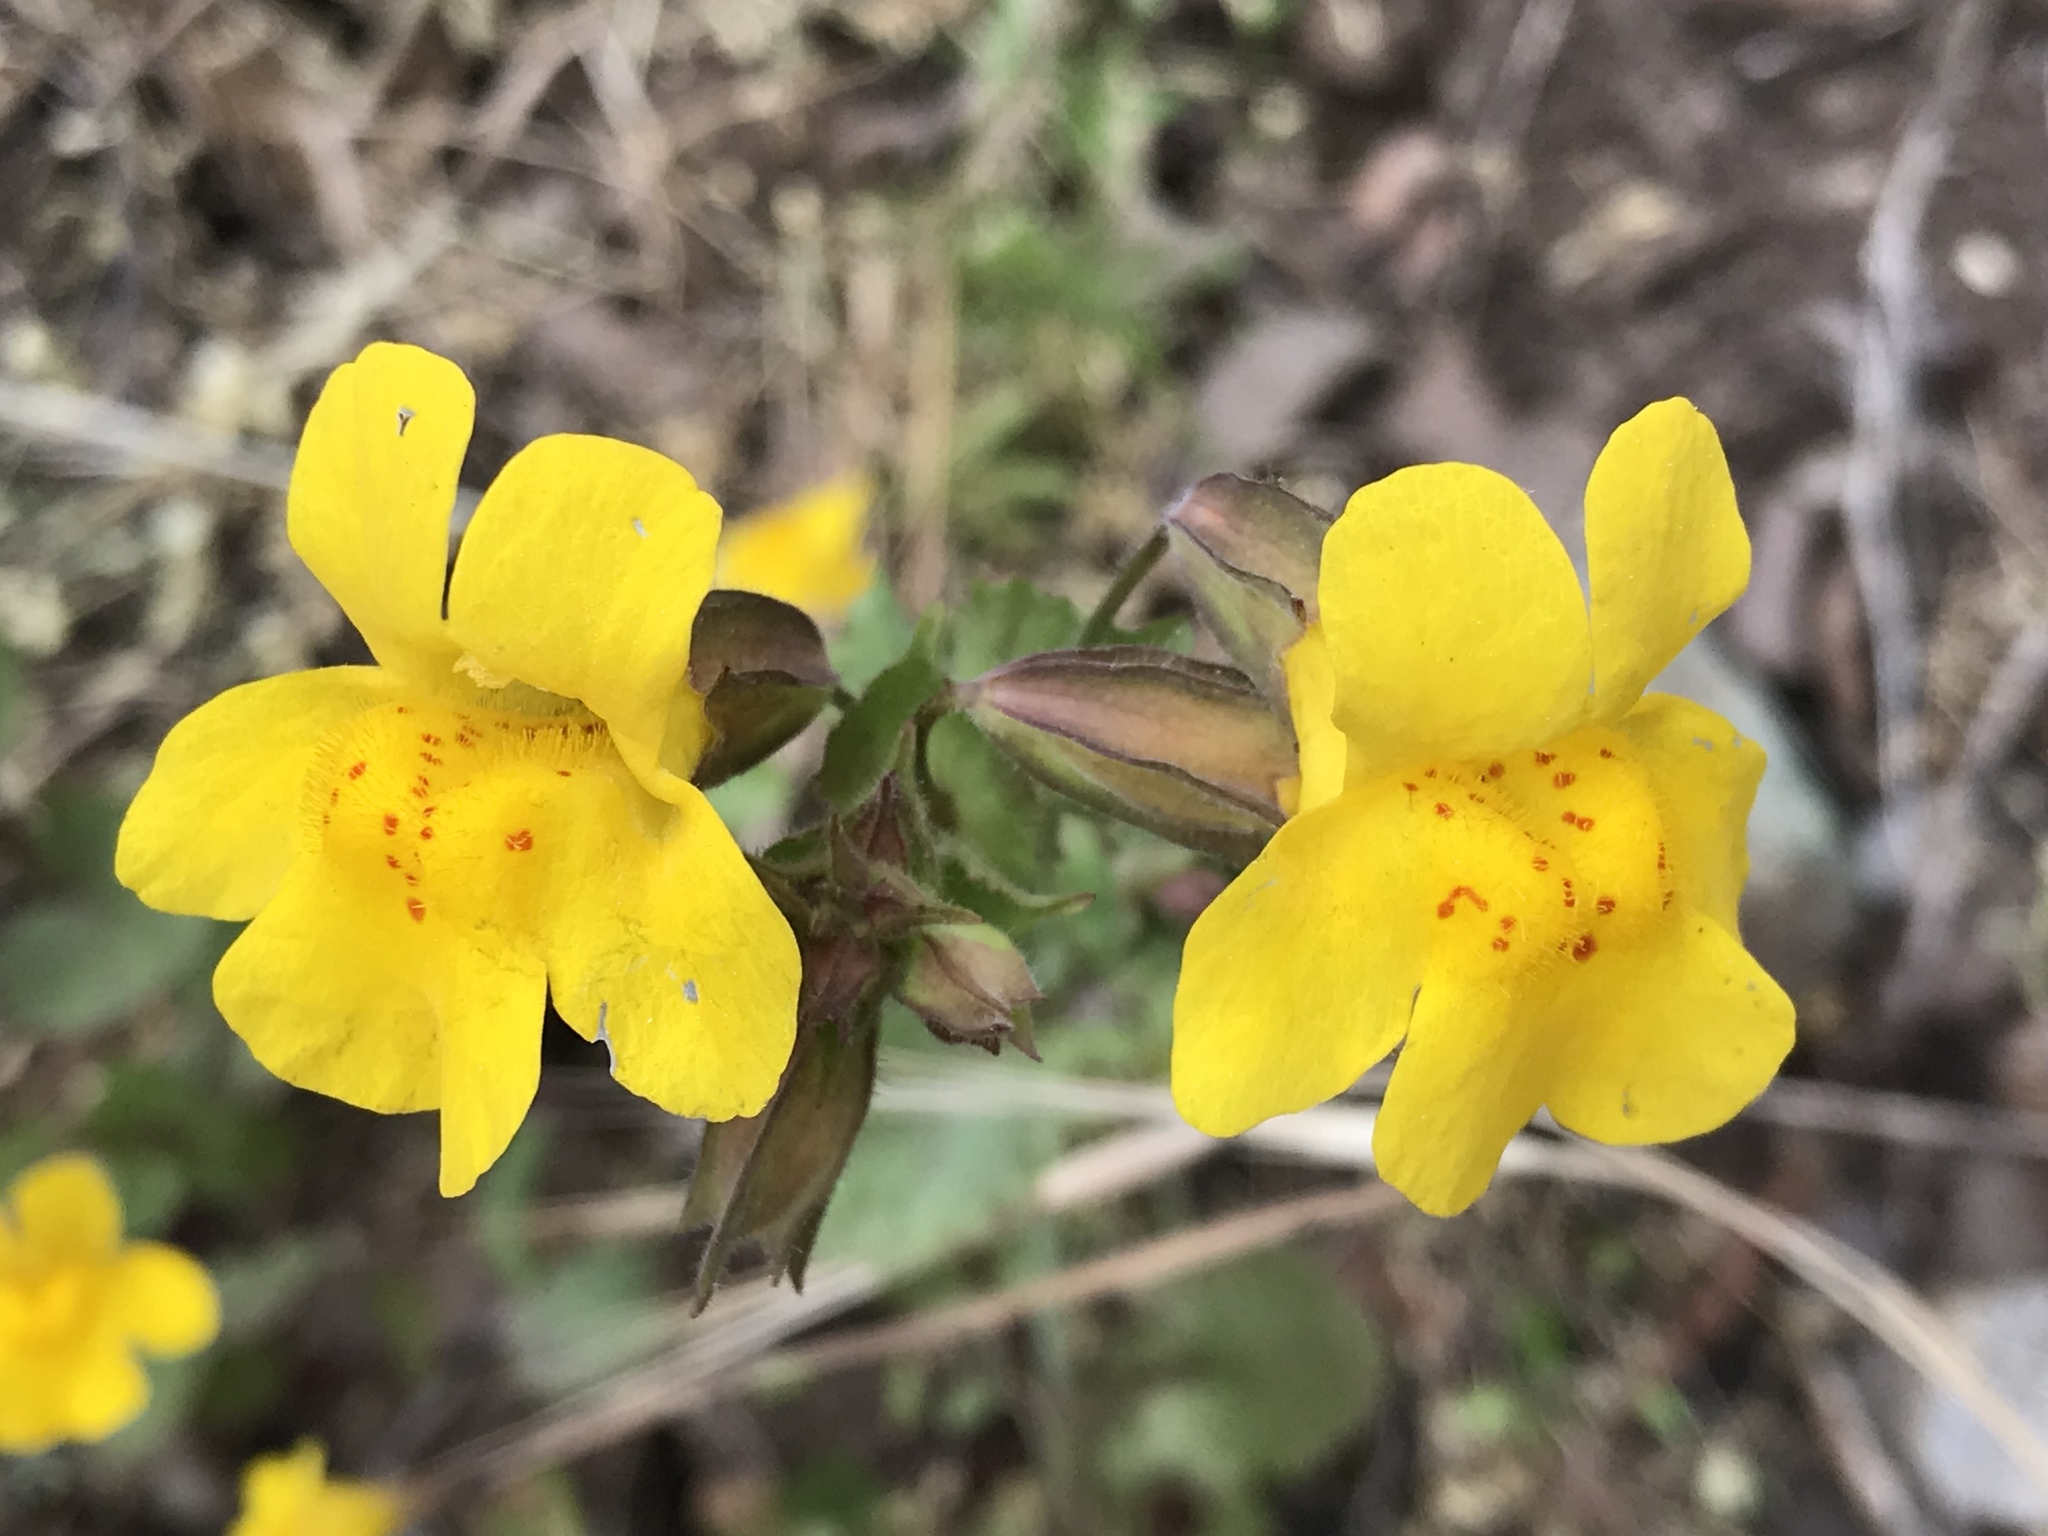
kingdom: Plantae
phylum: Tracheophyta
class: Magnoliopsida
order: Lamiales
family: Phrymaceae
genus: Erythranthe
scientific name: Erythranthe guttata
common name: Monkeyflower
